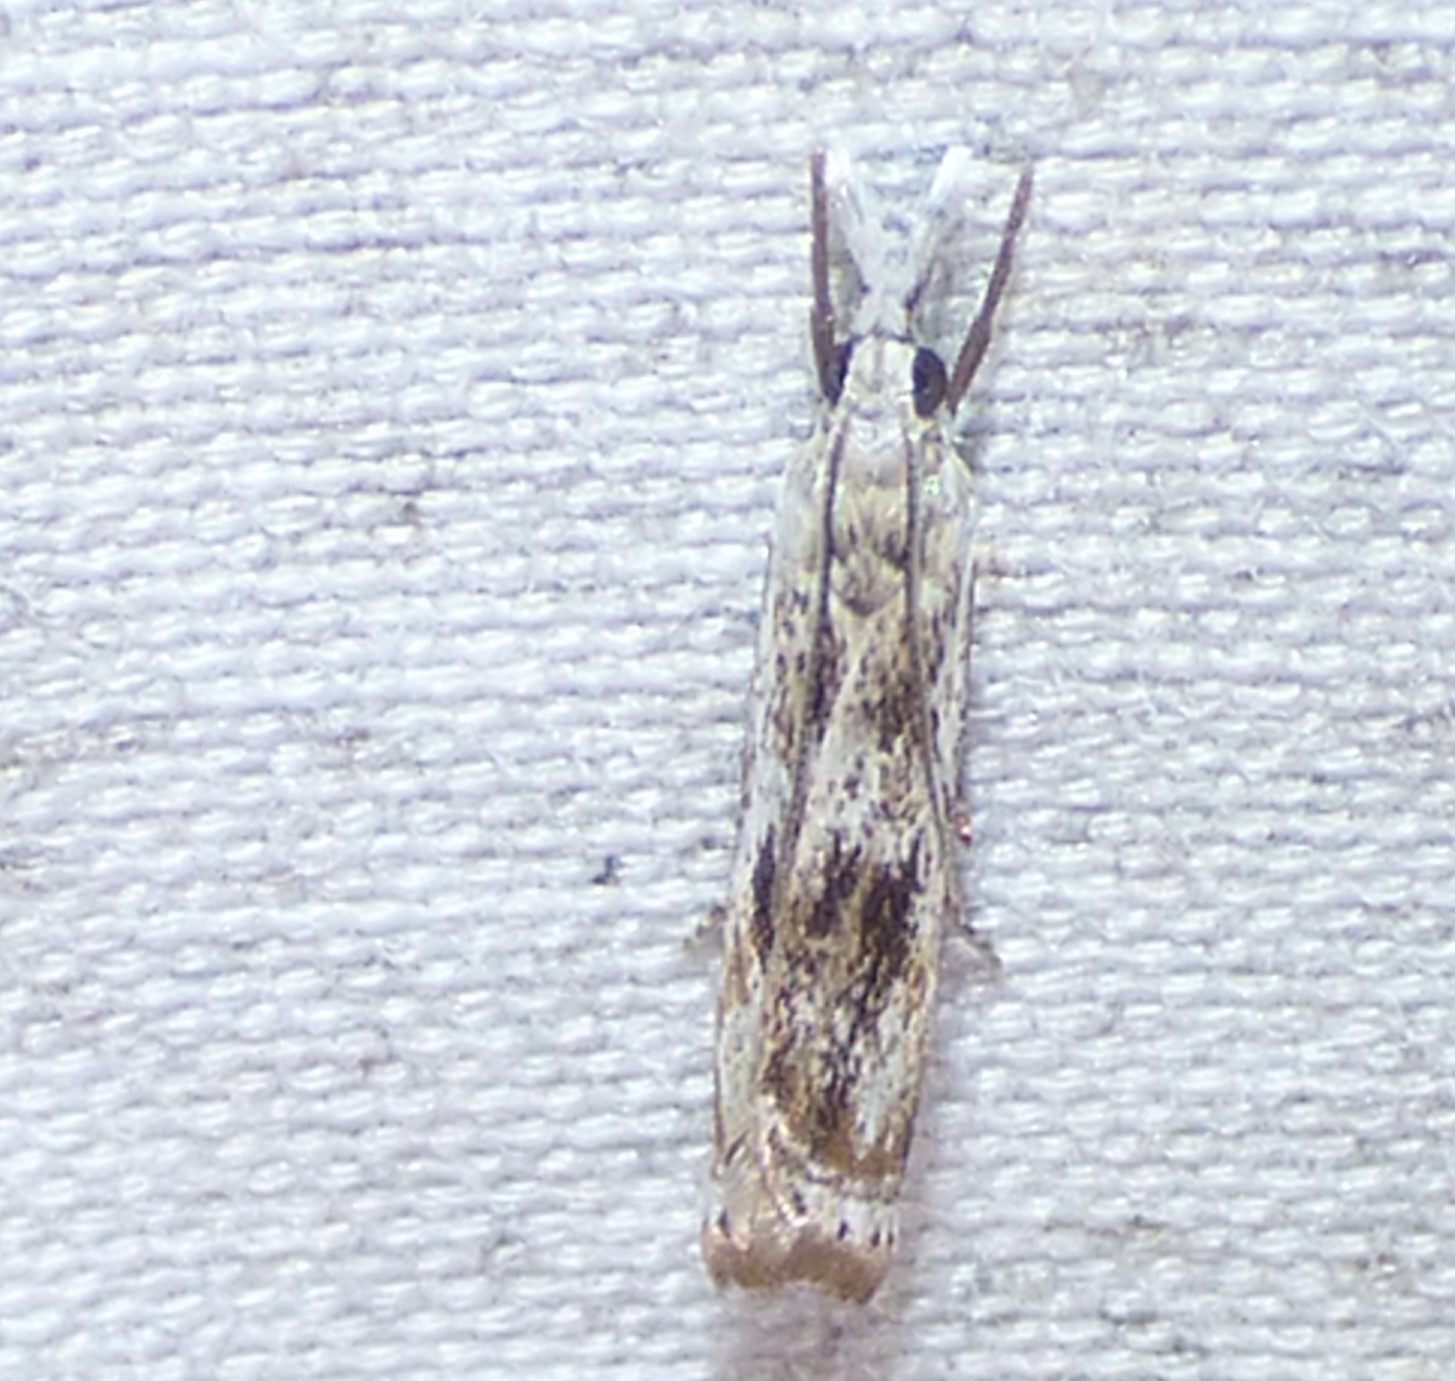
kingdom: Animalia
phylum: Arthropoda
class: Insecta
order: Lepidoptera
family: Crambidae
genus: Microcrambus
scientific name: Microcrambus immunellus
